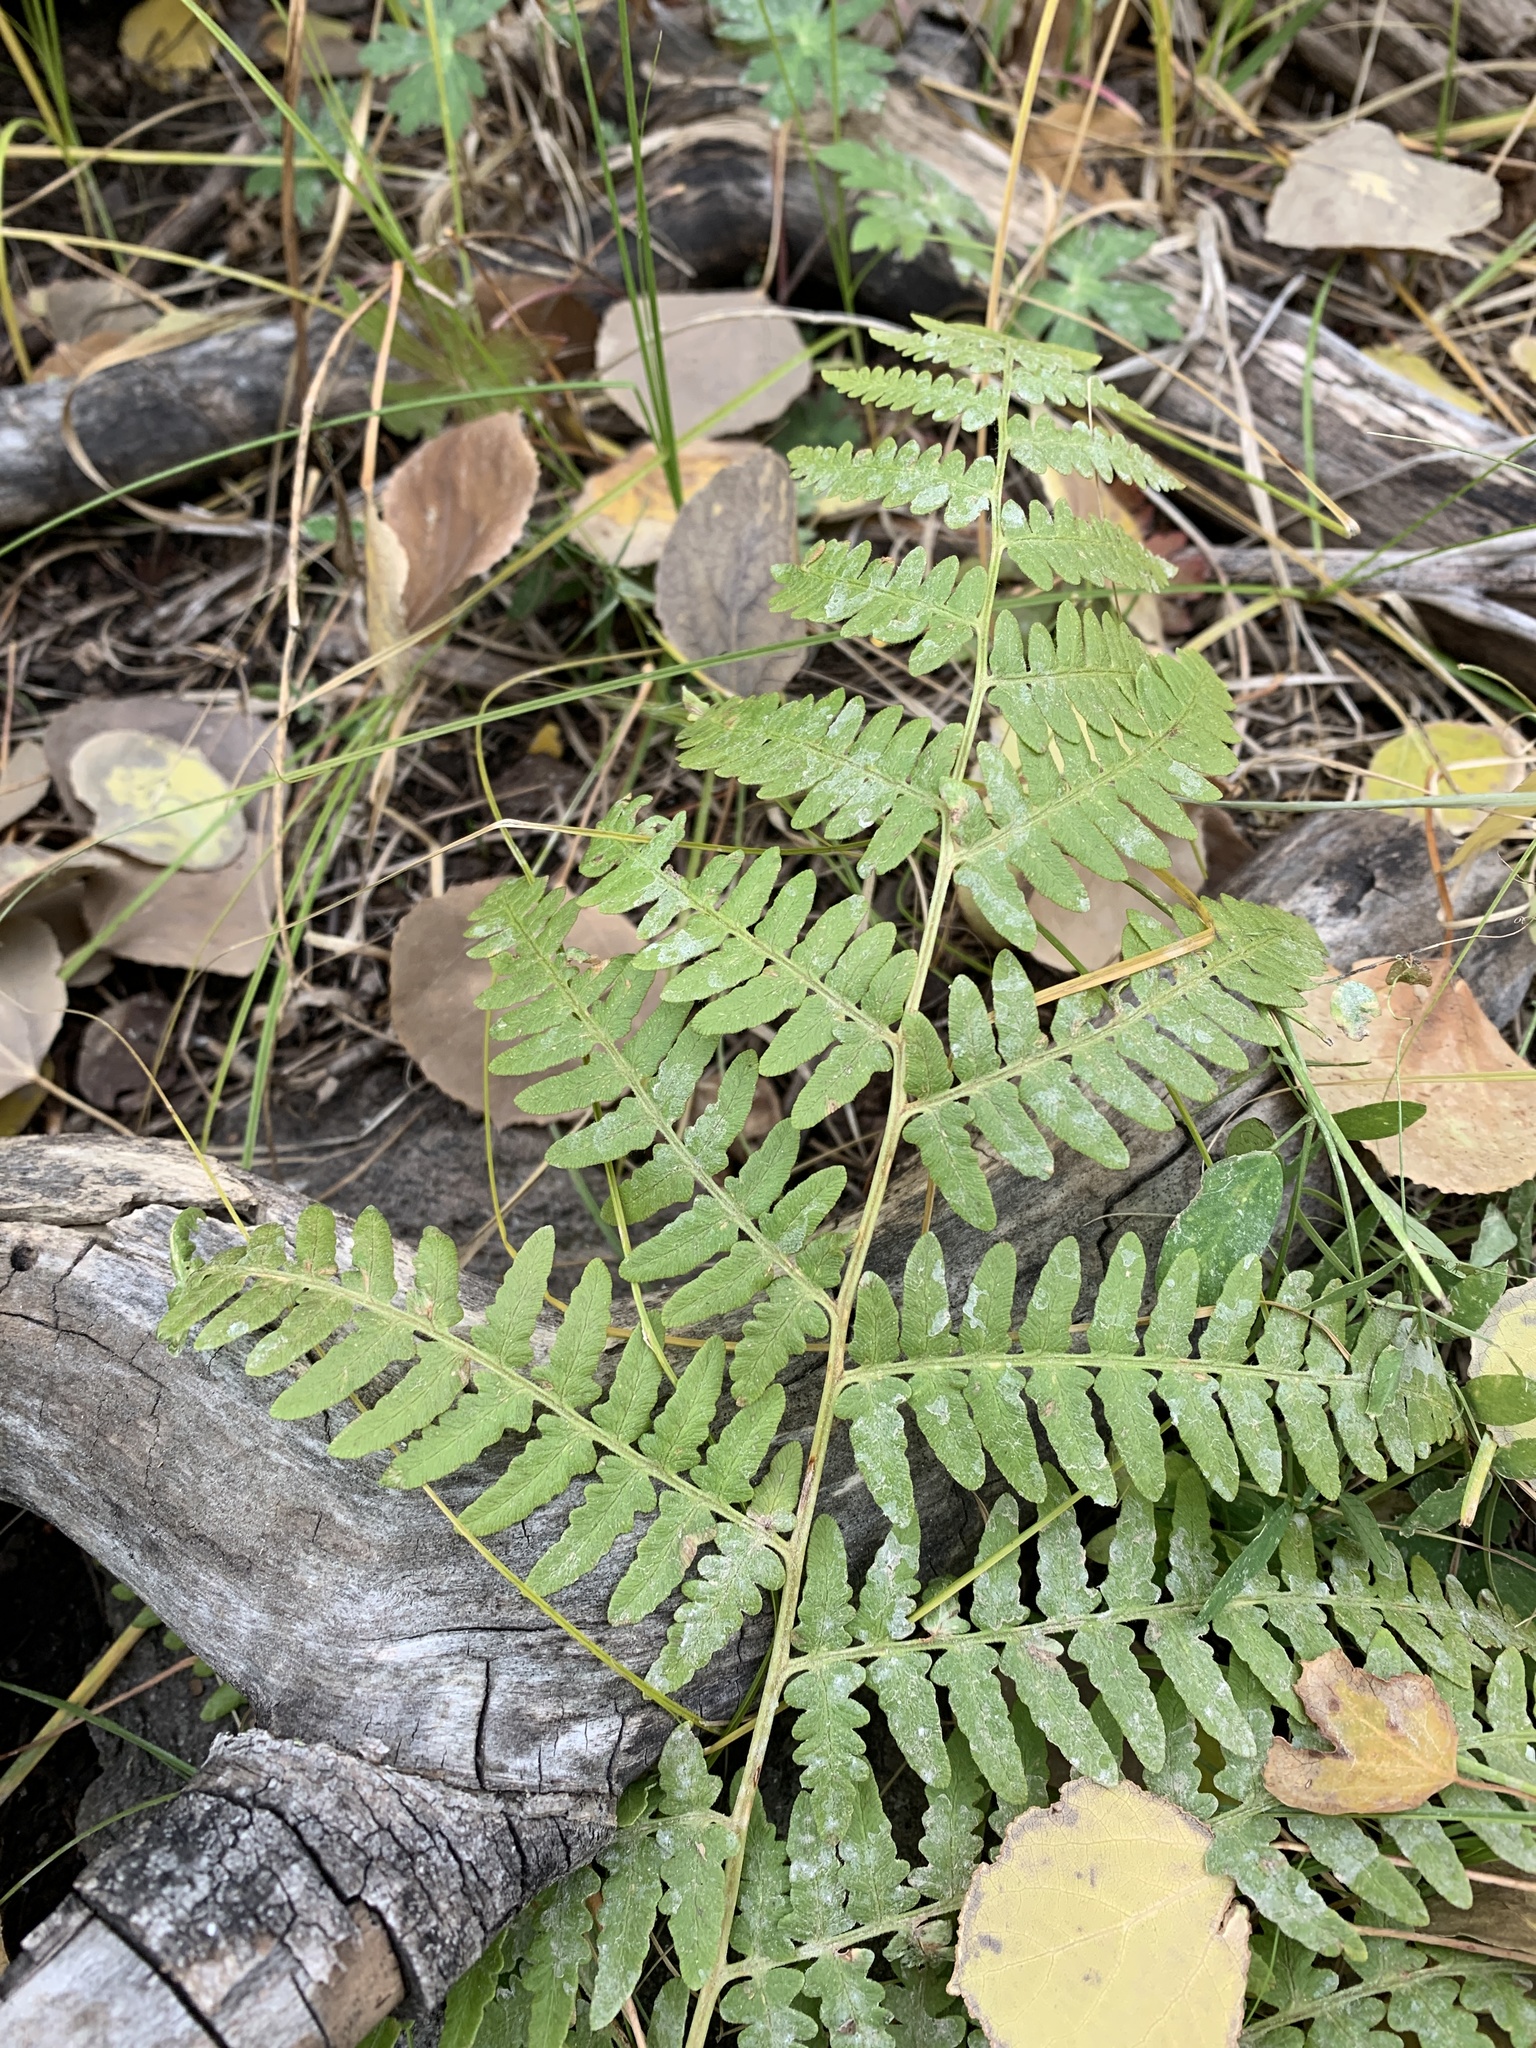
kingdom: Plantae
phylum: Tracheophyta
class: Polypodiopsida
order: Polypodiales
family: Dennstaedtiaceae
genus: Pteridium
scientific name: Pteridium aquilinum
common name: Bracken
